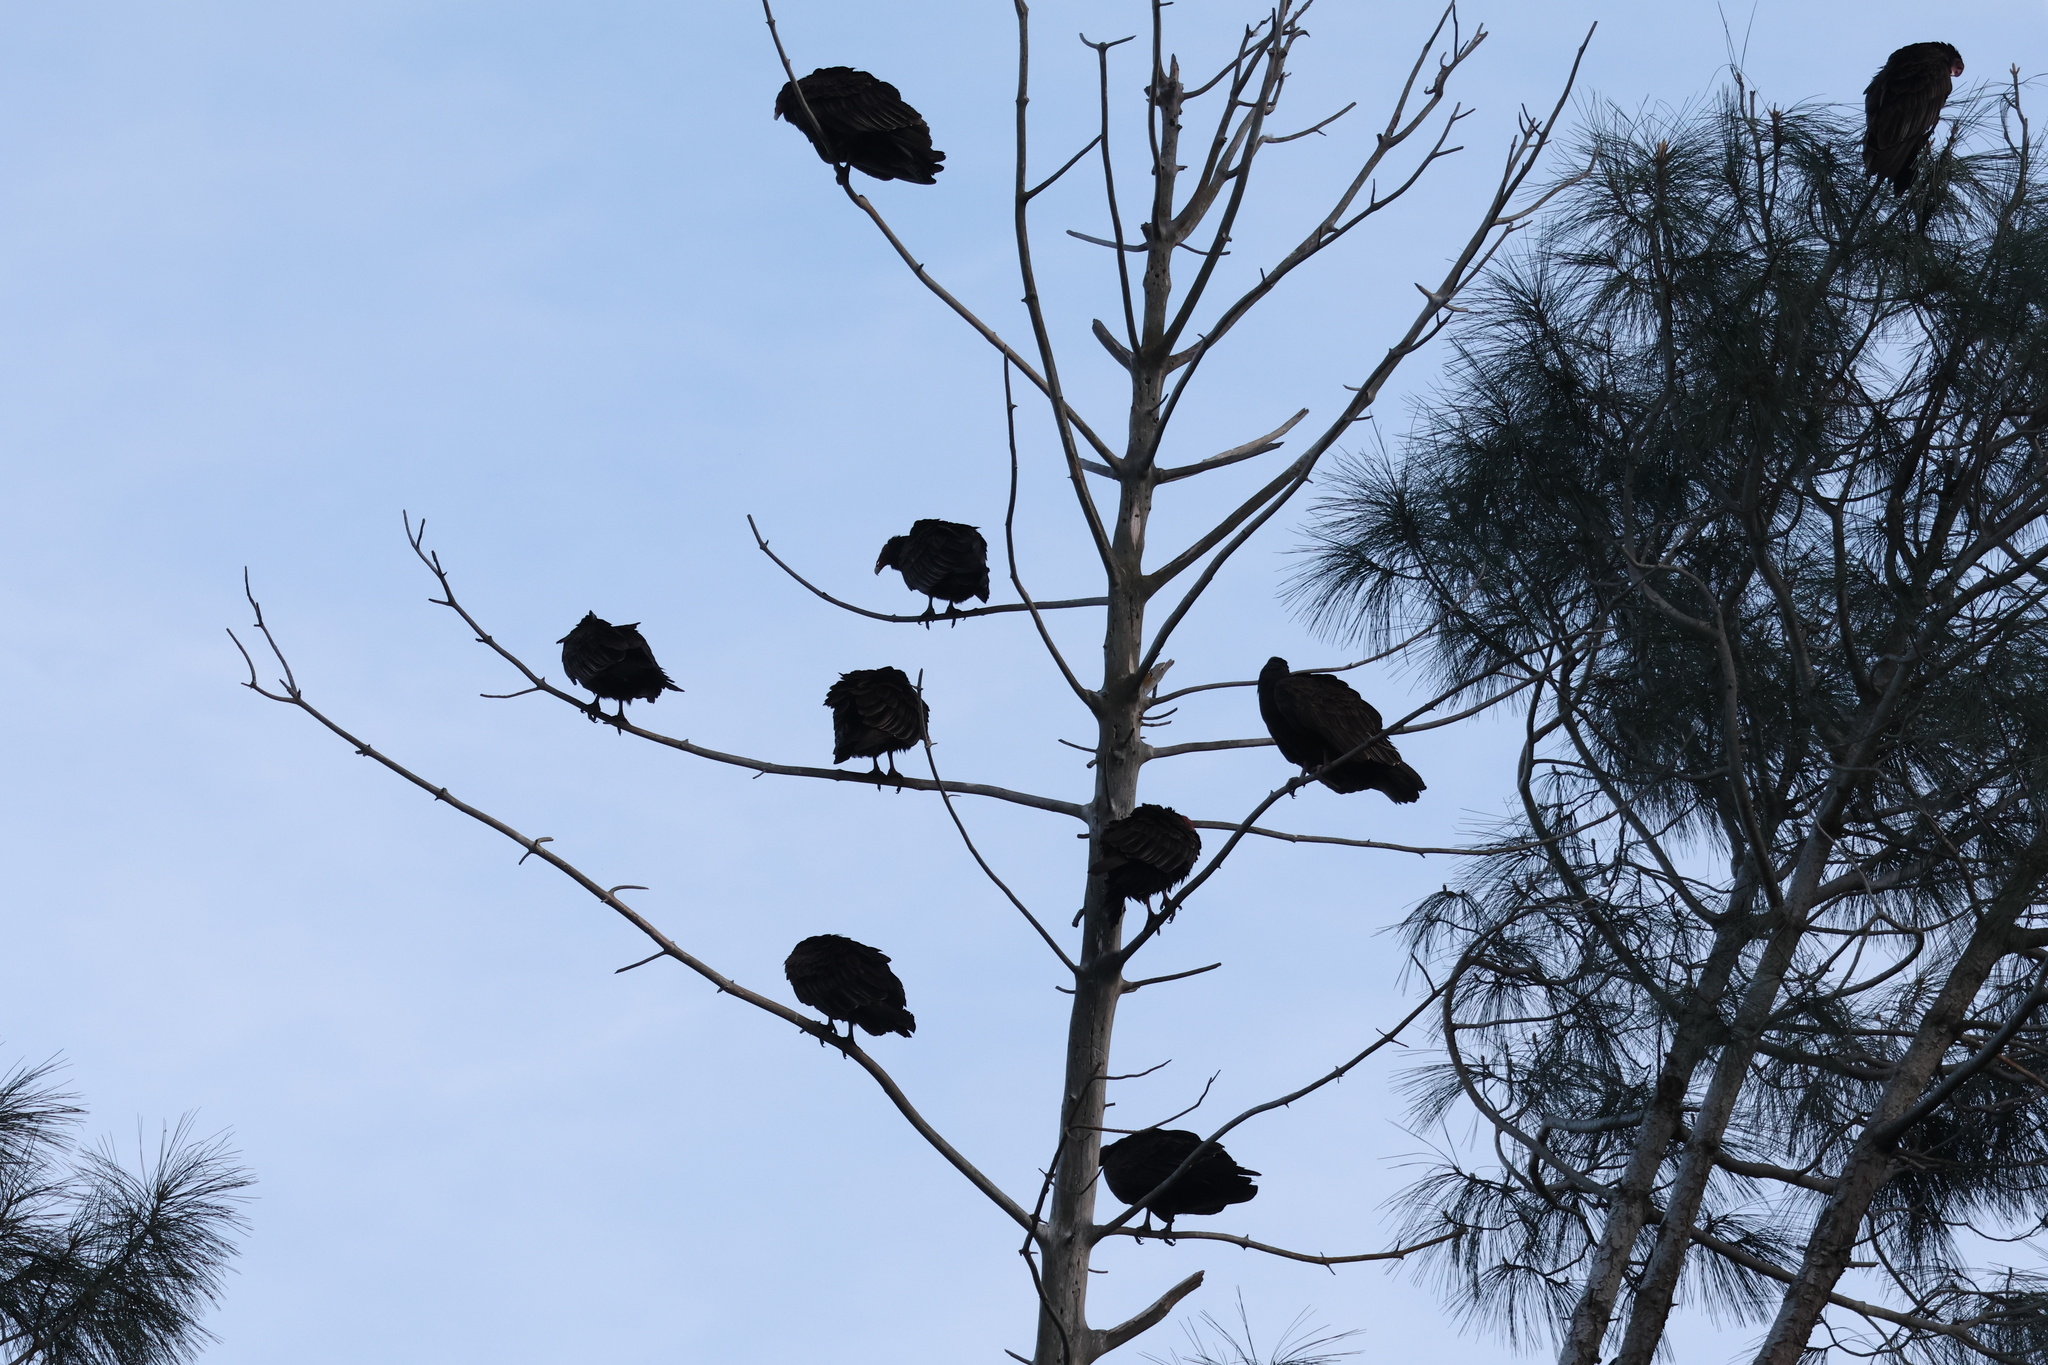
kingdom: Animalia
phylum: Chordata
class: Aves
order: Accipitriformes
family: Cathartidae
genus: Cathartes
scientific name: Cathartes aura
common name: Turkey vulture
